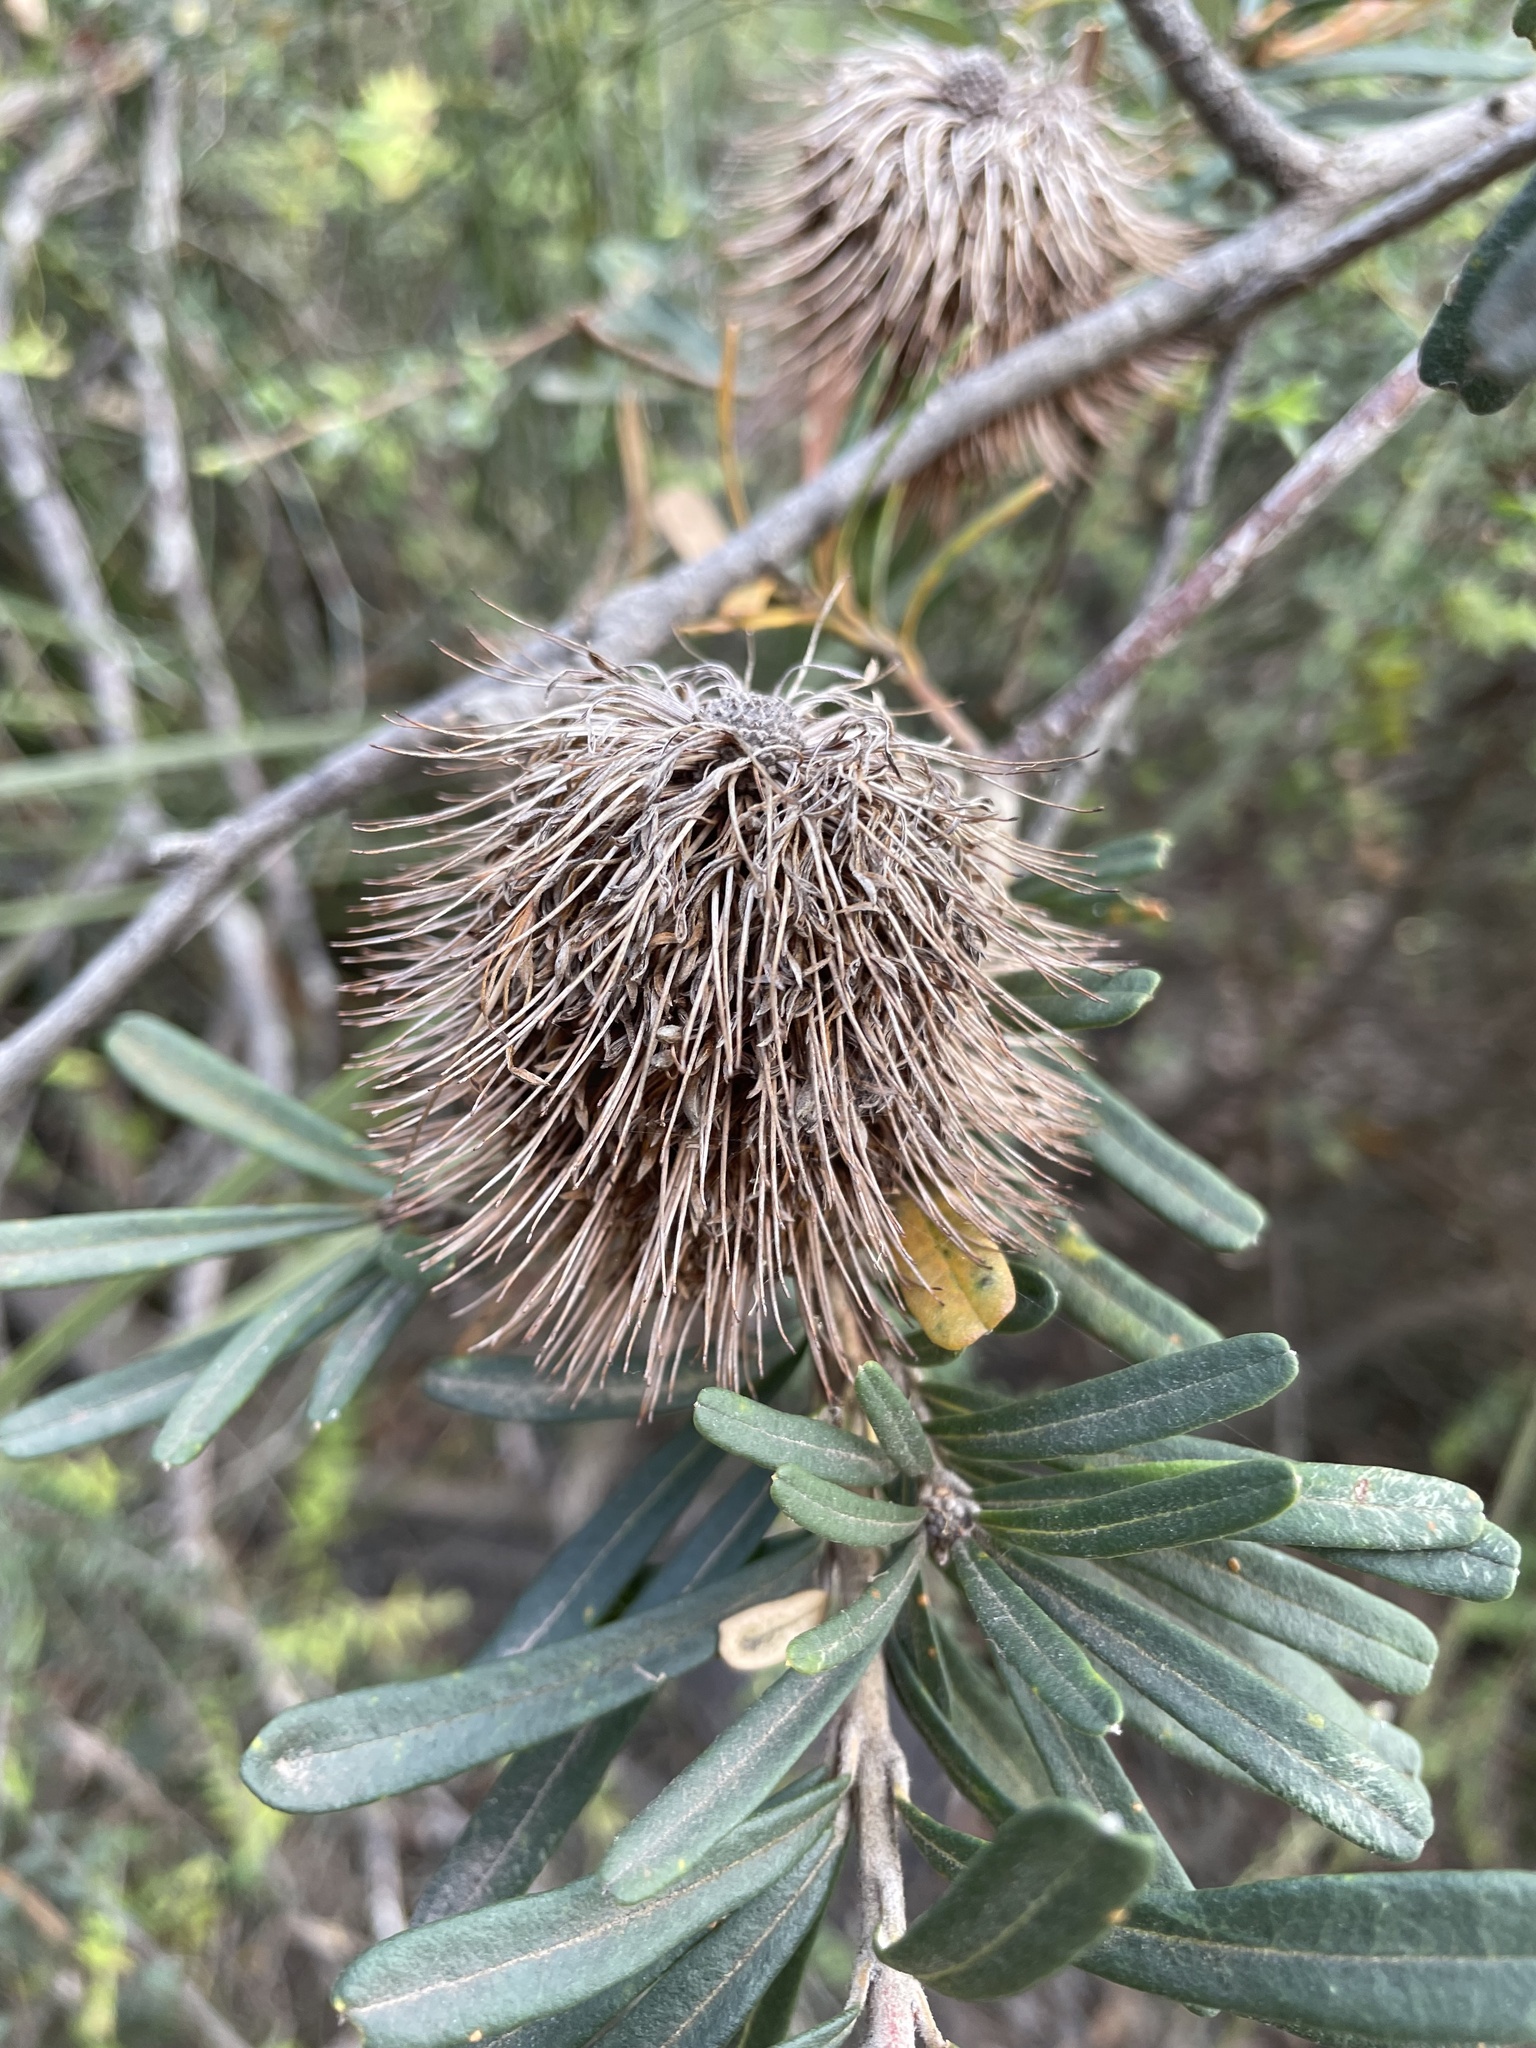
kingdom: Plantae
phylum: Tracheophyta
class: Magnoliopsida
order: Proteales
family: Proteaceae
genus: Banksia
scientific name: Banksia marginata
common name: Silver banksia
